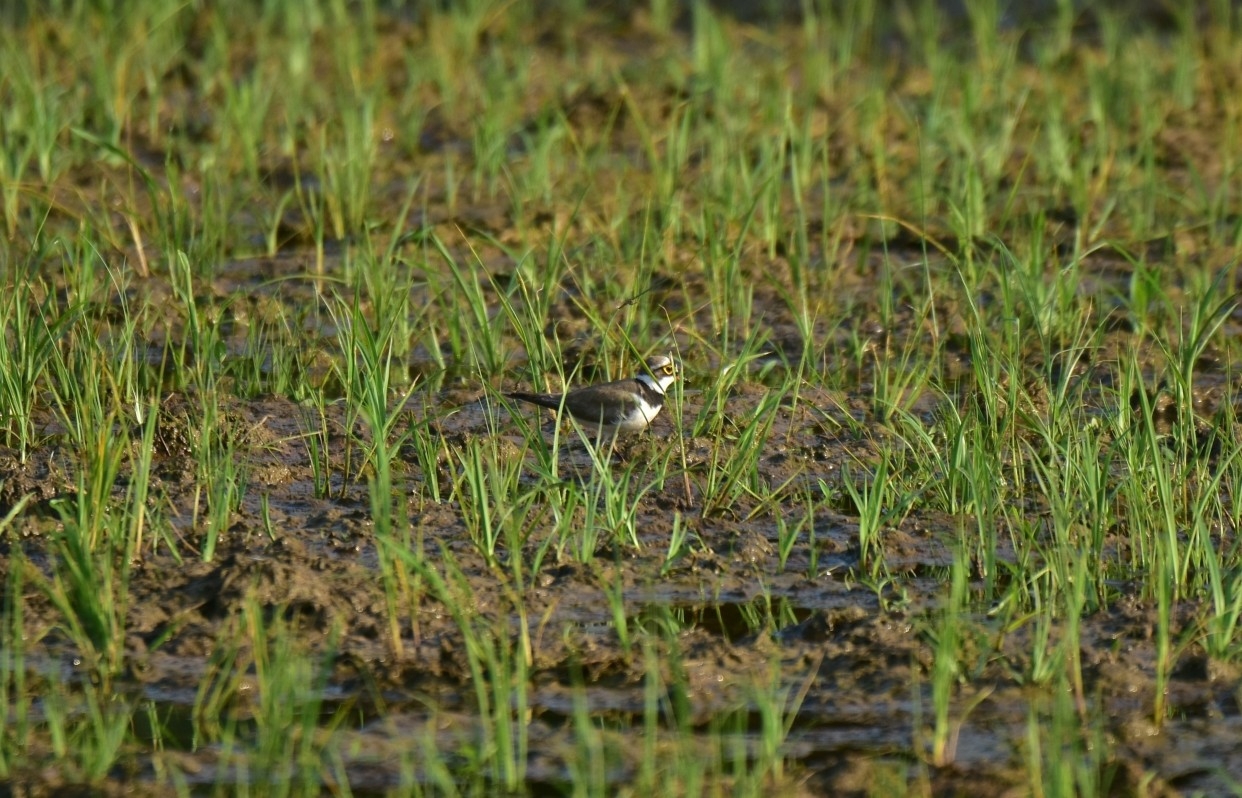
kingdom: Animalia
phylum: Chordata
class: Aves
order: Charadriiformes
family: Charadriidae
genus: Charadrius
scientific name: Charadrius dubius
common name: Little ringed plover
